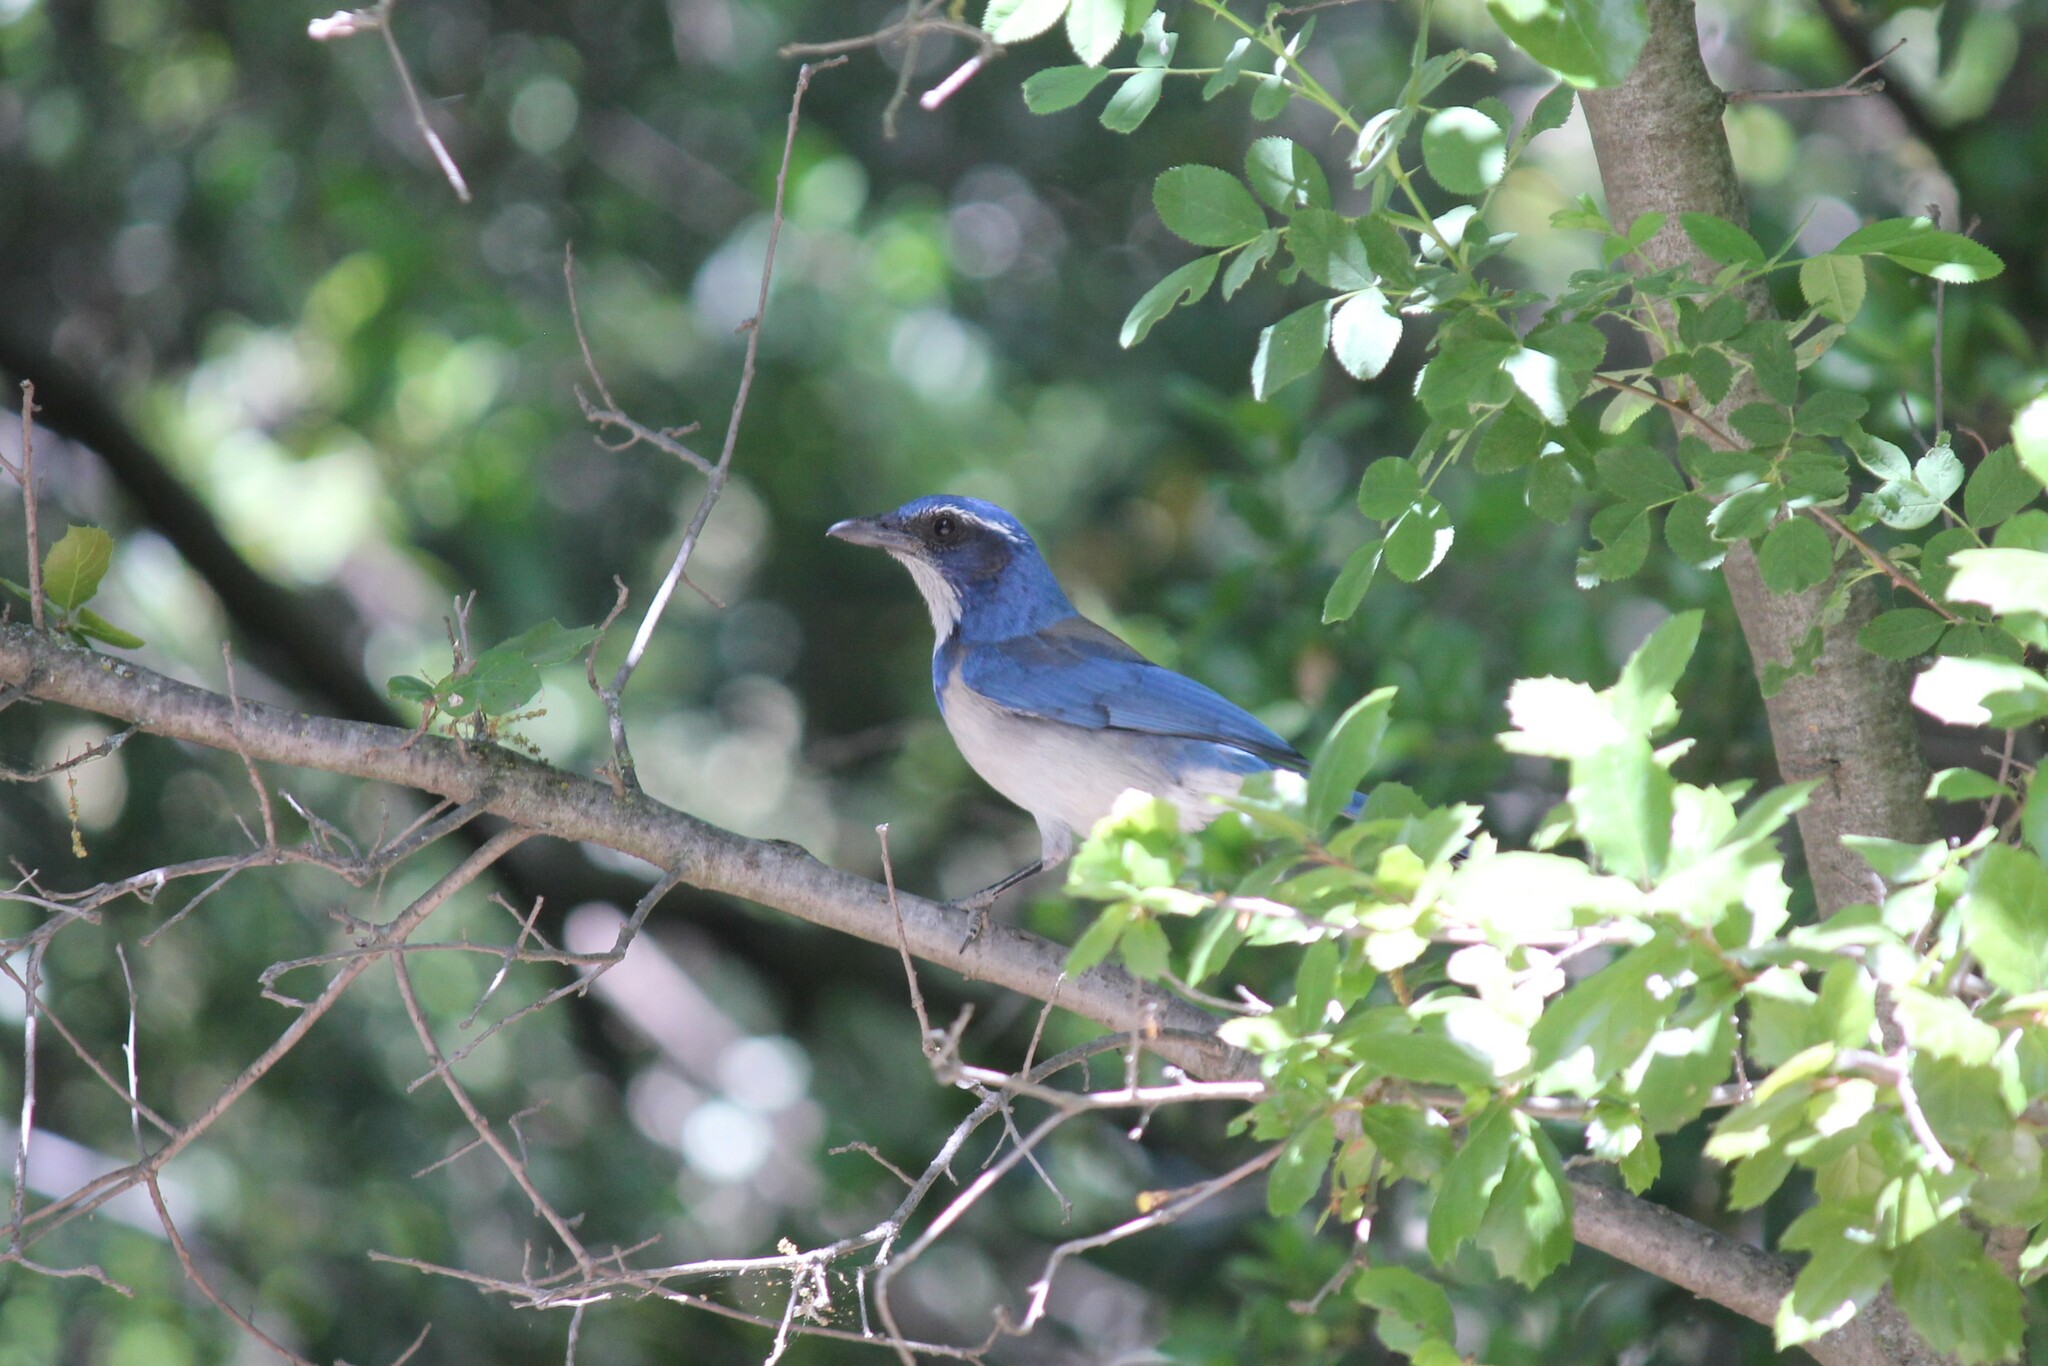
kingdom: Animalia
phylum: Chordata
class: Aves
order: Passeriformes
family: Corvidae
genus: Aphelocoma
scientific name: Aphelocoma californica
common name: California scrub-jay
